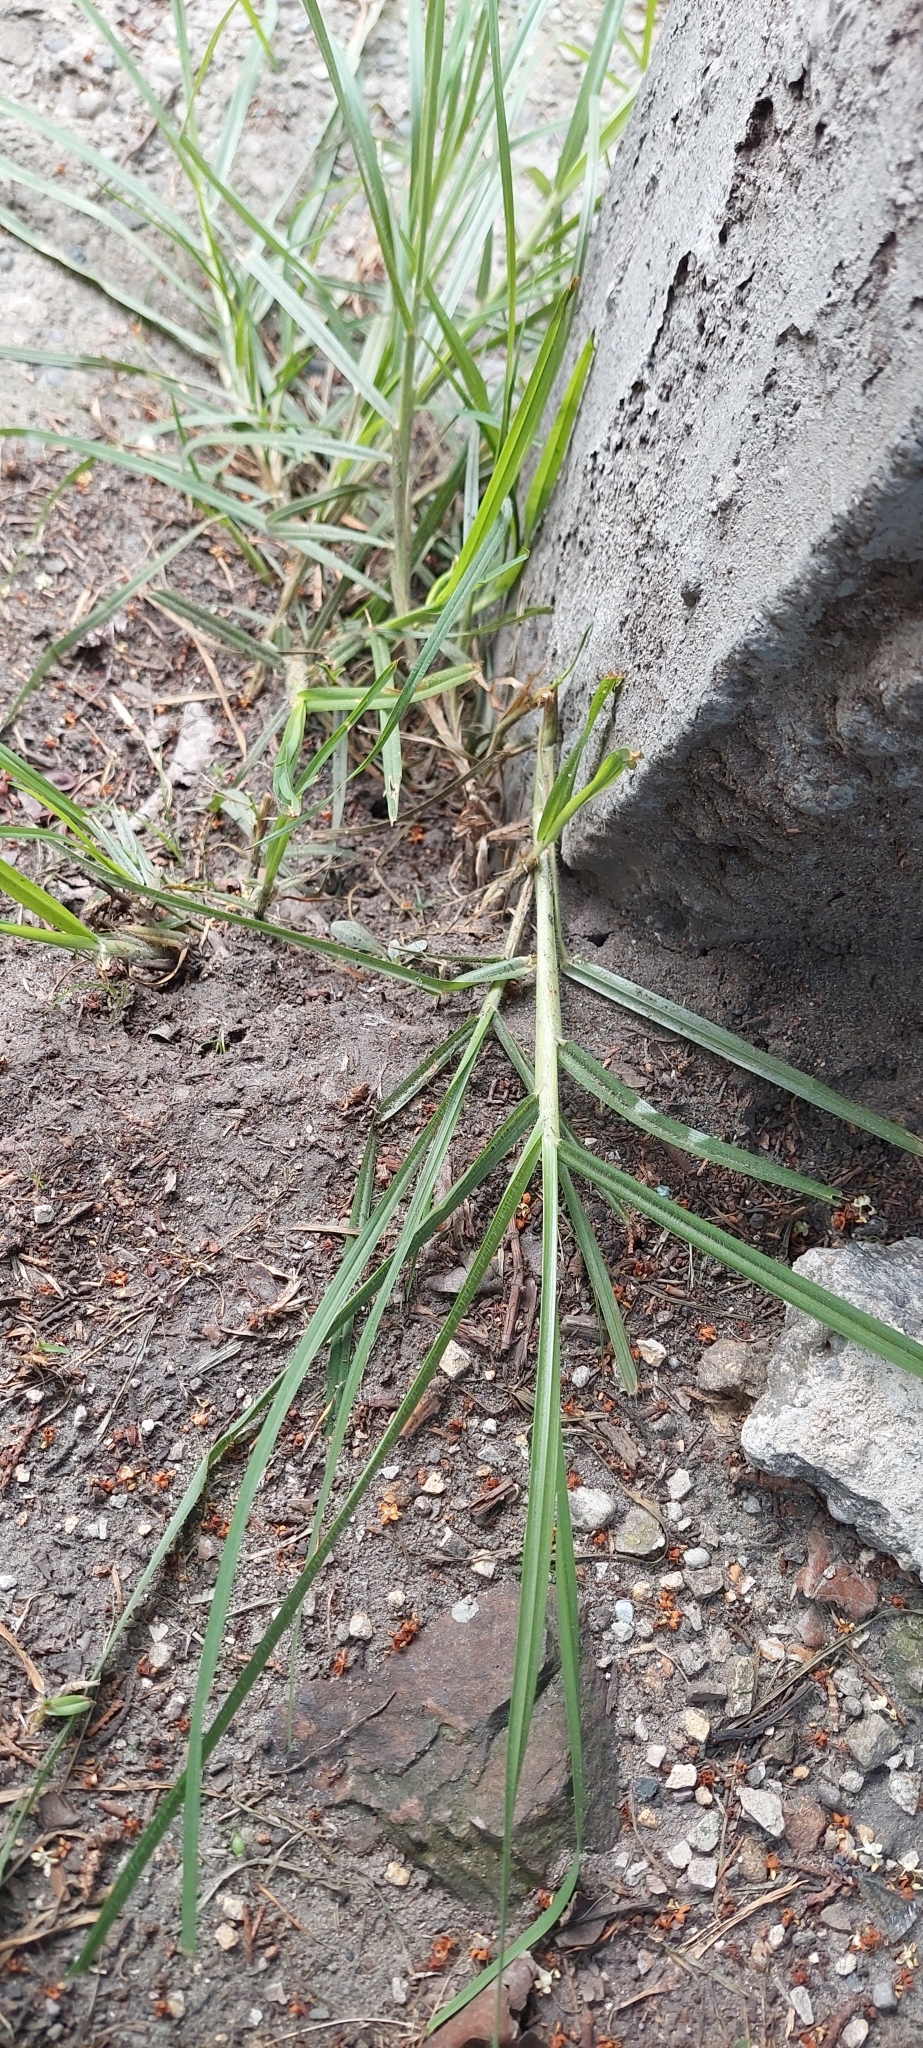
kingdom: Plantae
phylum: Tracheophyta
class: Liliopsida
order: Poales
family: Poaceae
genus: Cenchrus
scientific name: Cenchrus clandestinus
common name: Kikuyugrass
